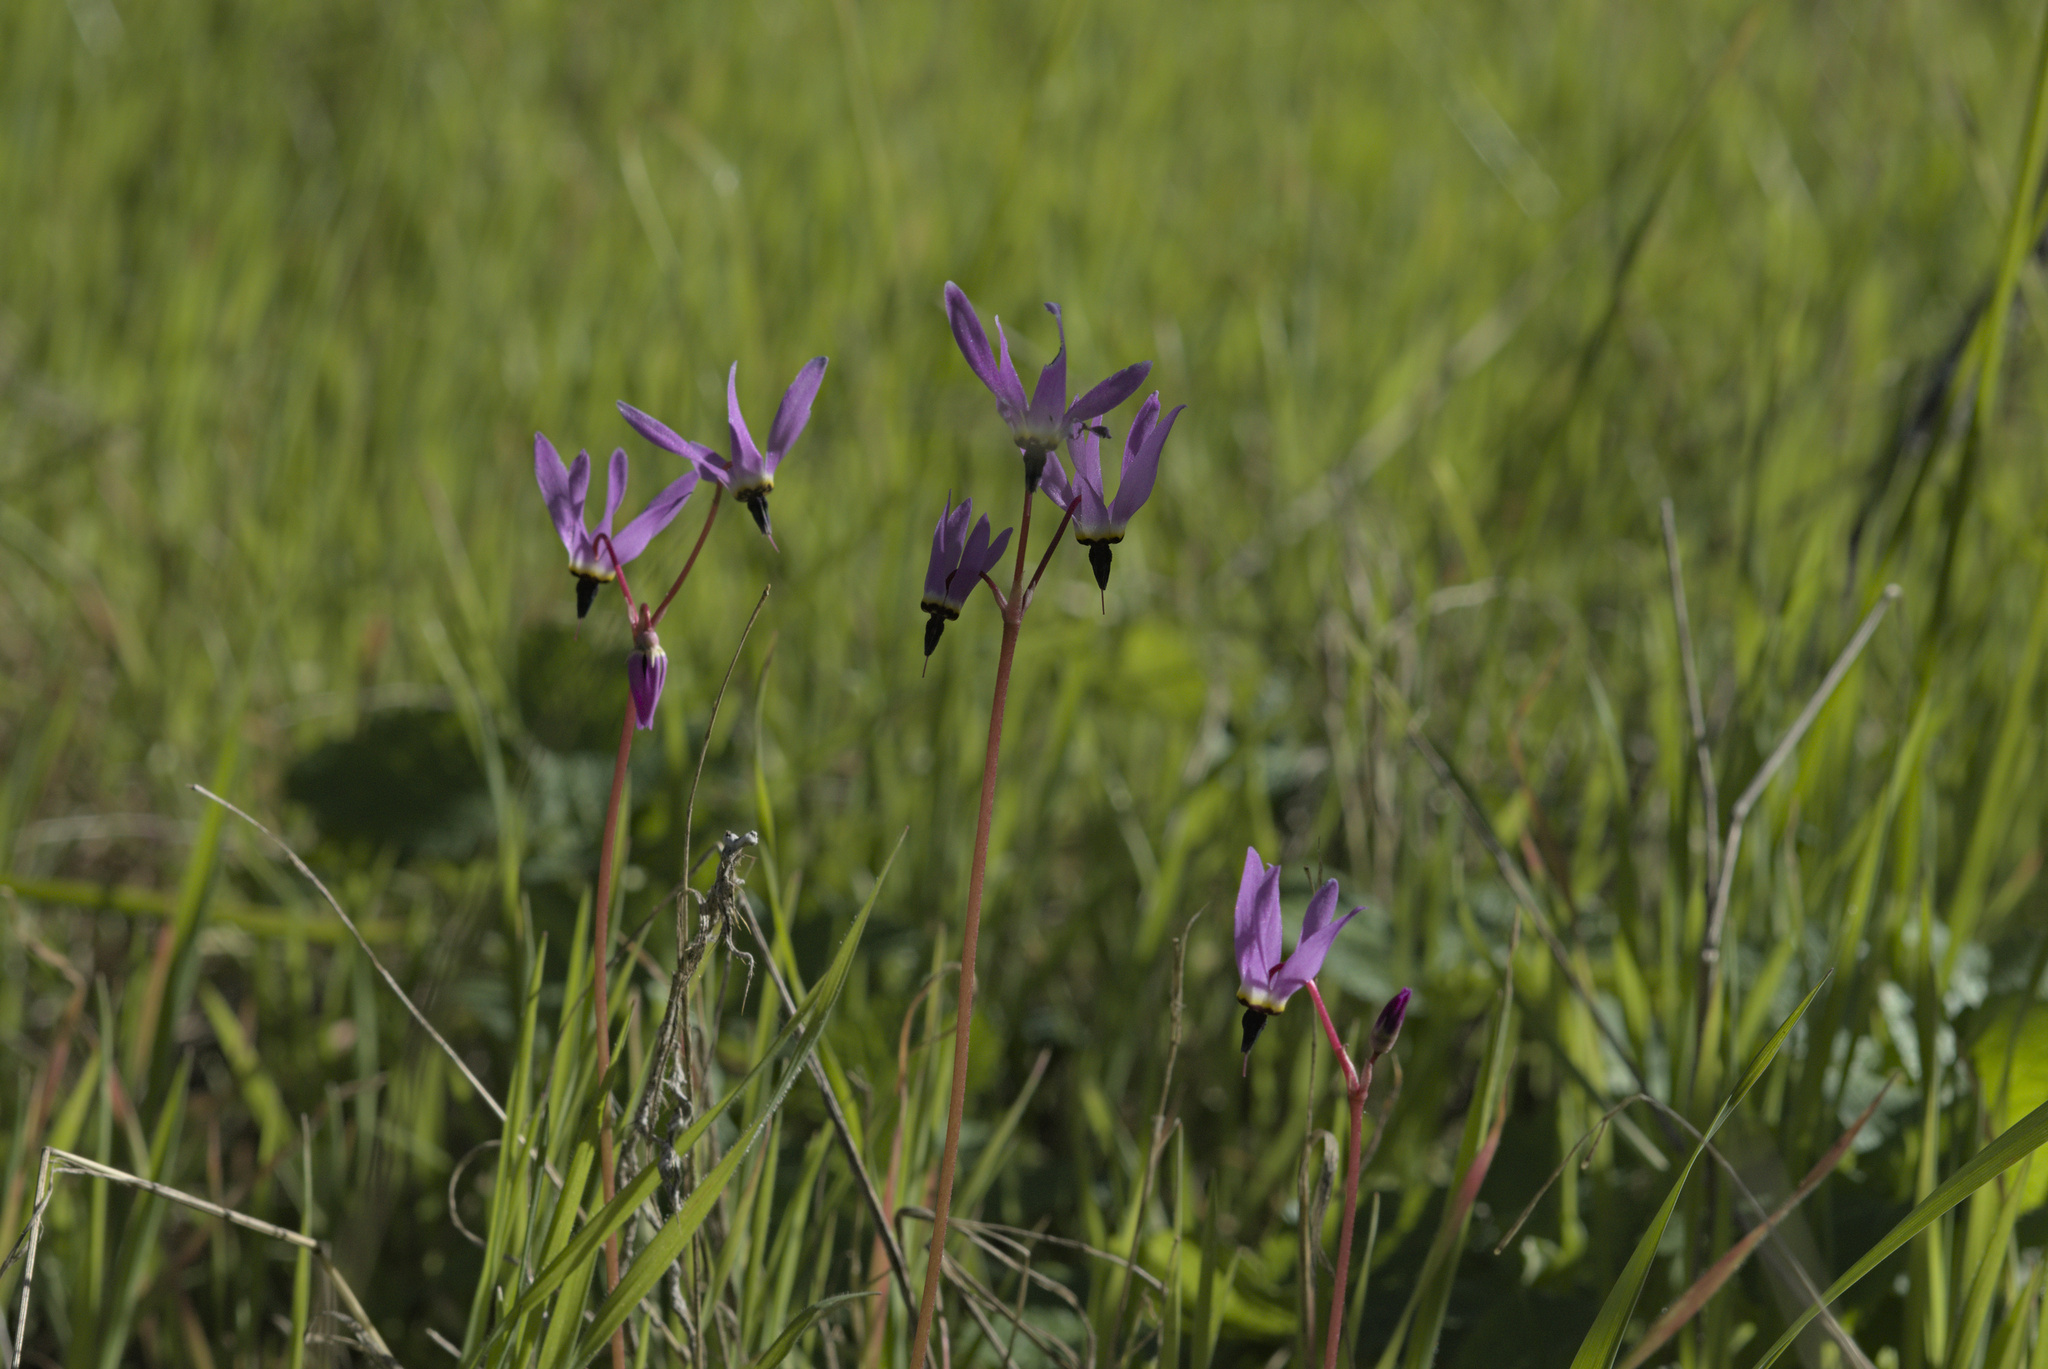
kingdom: Plantae
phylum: Tracheophyta
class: Magnoliopsida
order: Ericales
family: Primulaceae
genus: Dodecatheon
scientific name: Dodecatheon hendersonii
